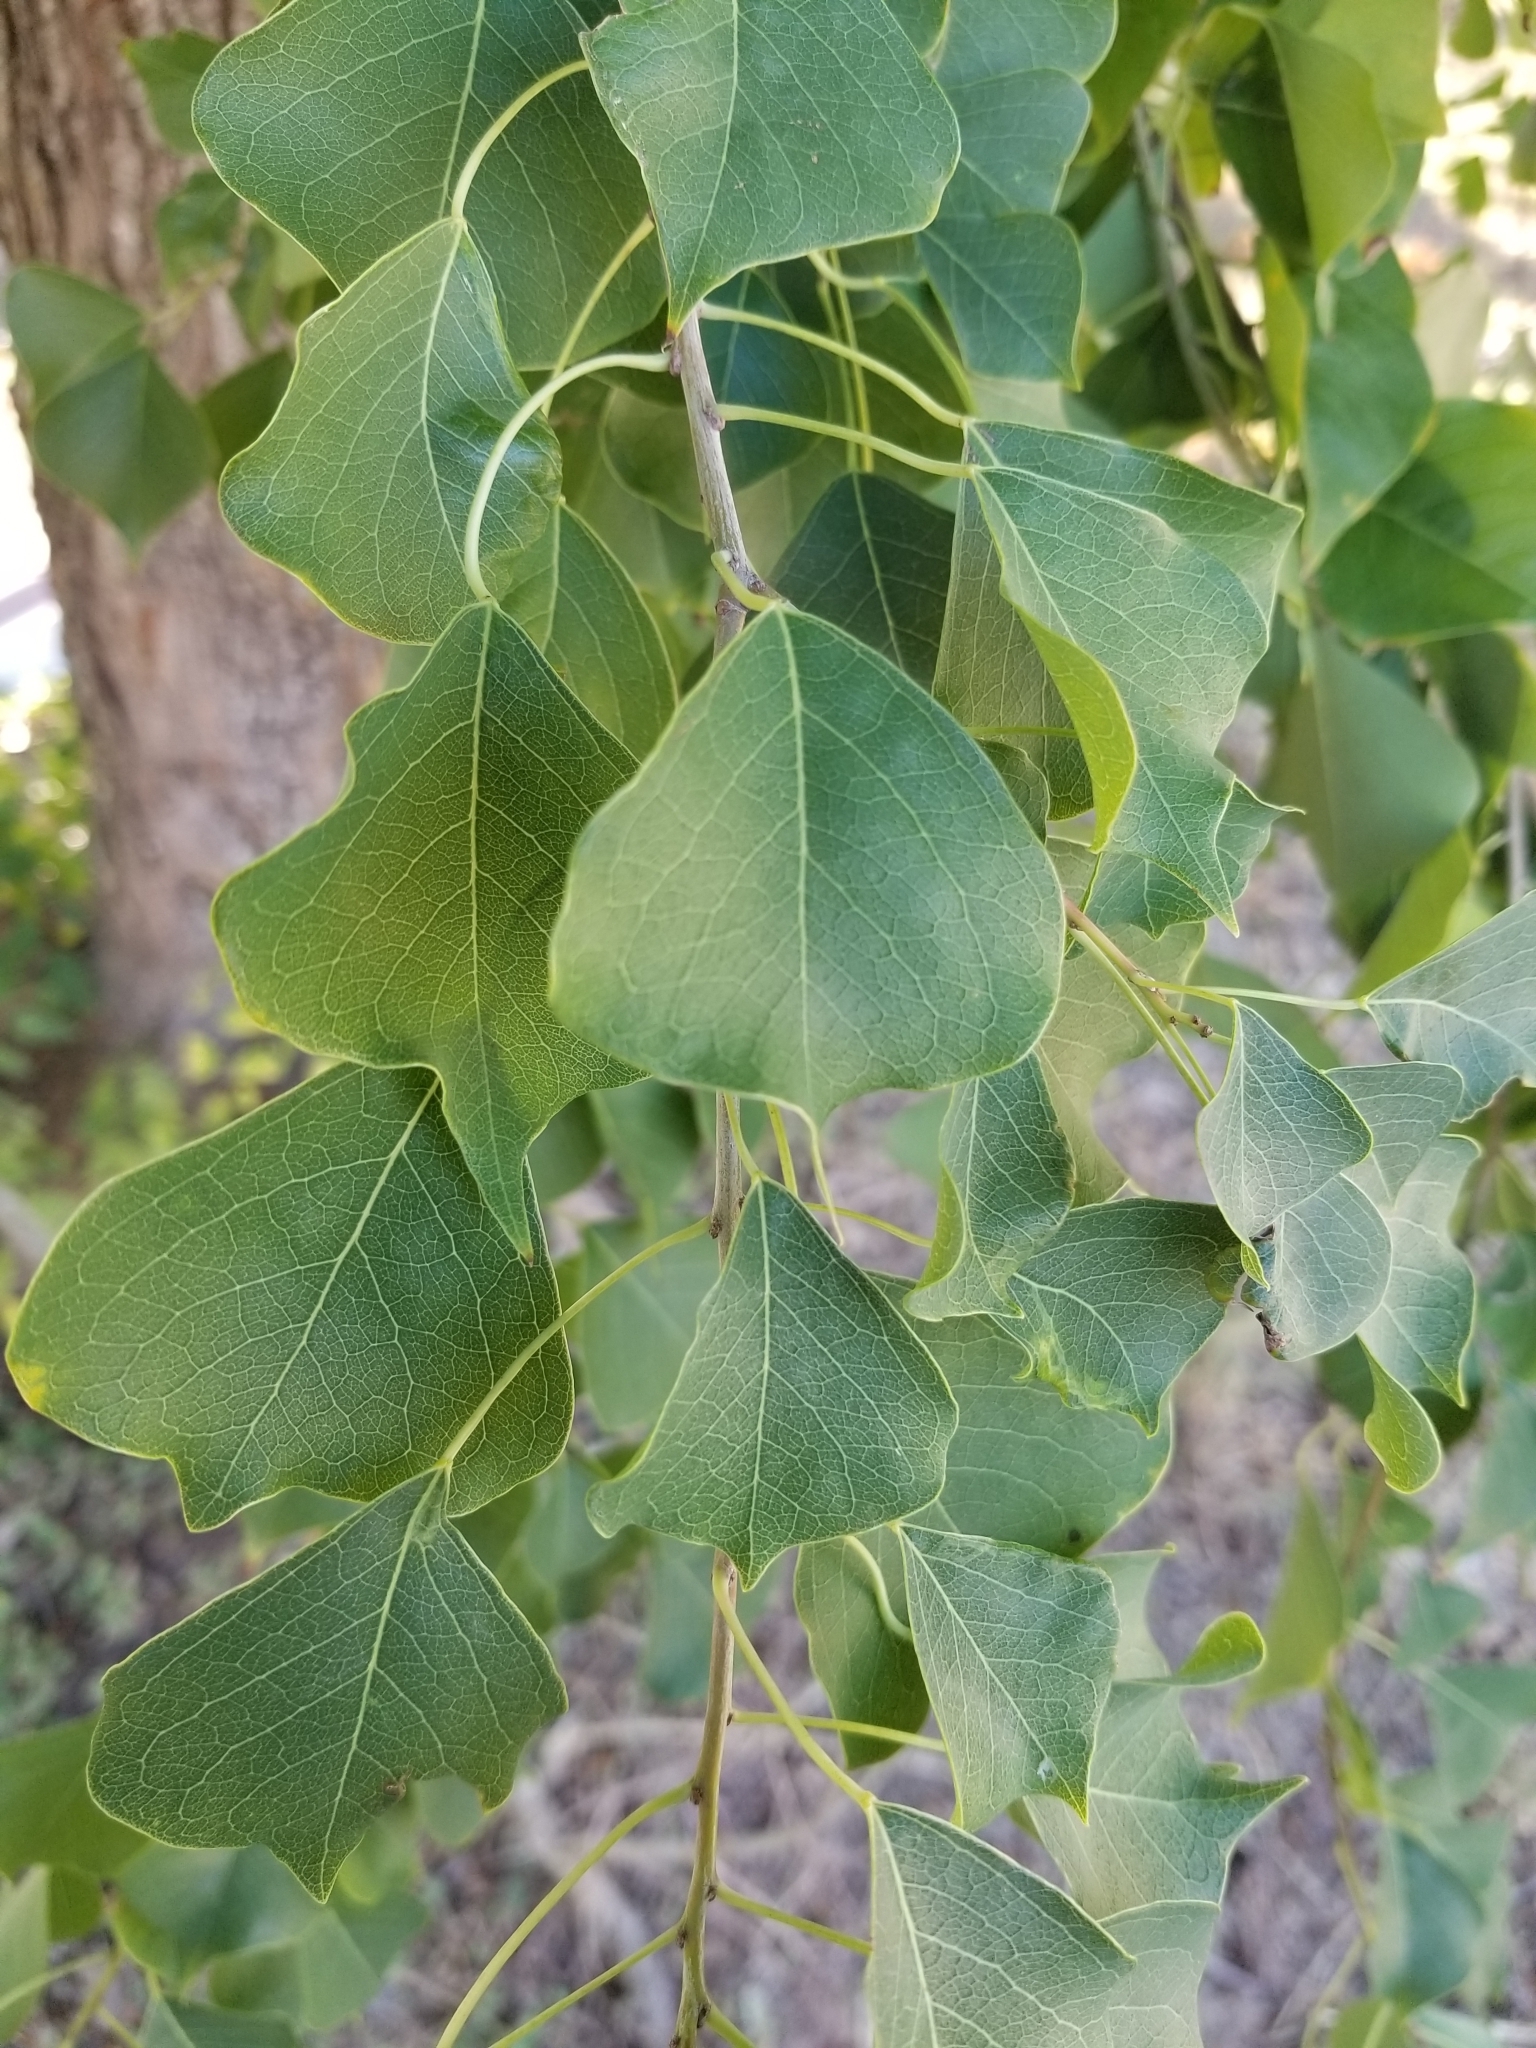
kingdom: Plantae
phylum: Tracheophyta
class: Magnoliopsida
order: Malpighiales
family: Euphorbiaceae
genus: Triadica
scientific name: Triadica sebifera
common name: Chinese tallow
